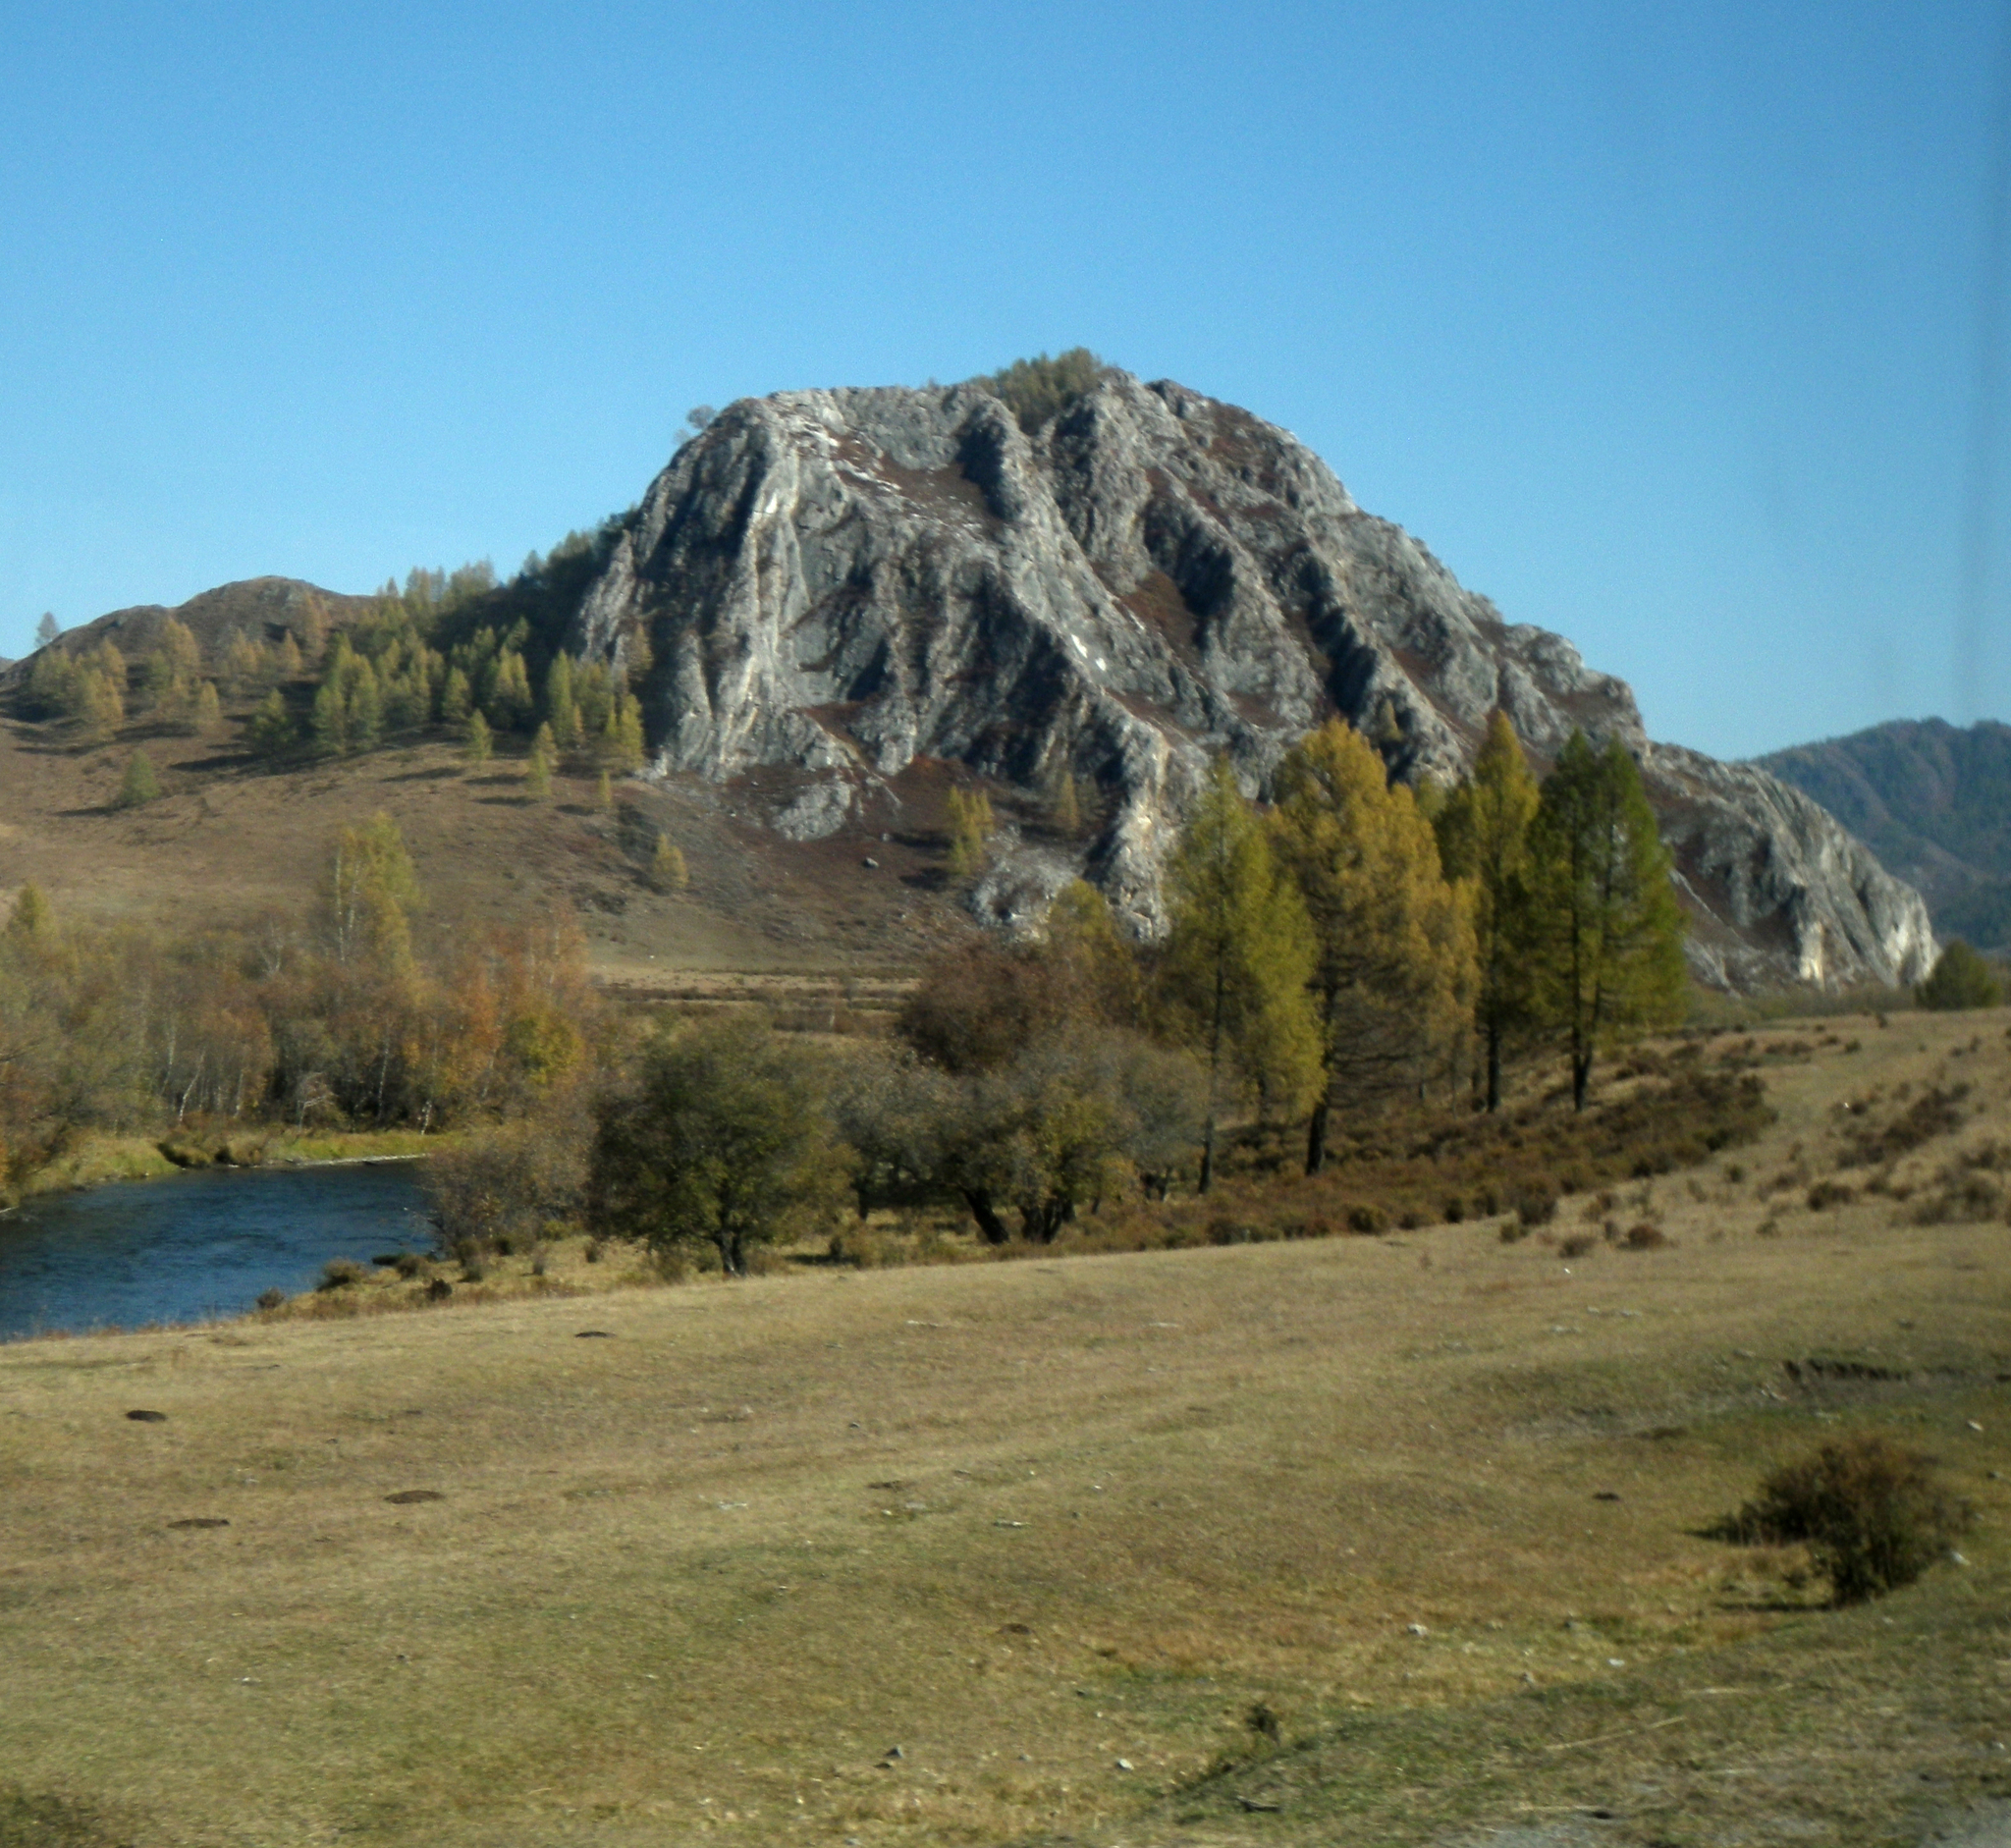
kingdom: Plantae
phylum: Tracheophyta
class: Pinopsida
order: Pinales
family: Pinaceae
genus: Larix
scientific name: Larix sibirica
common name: Siberian larch
